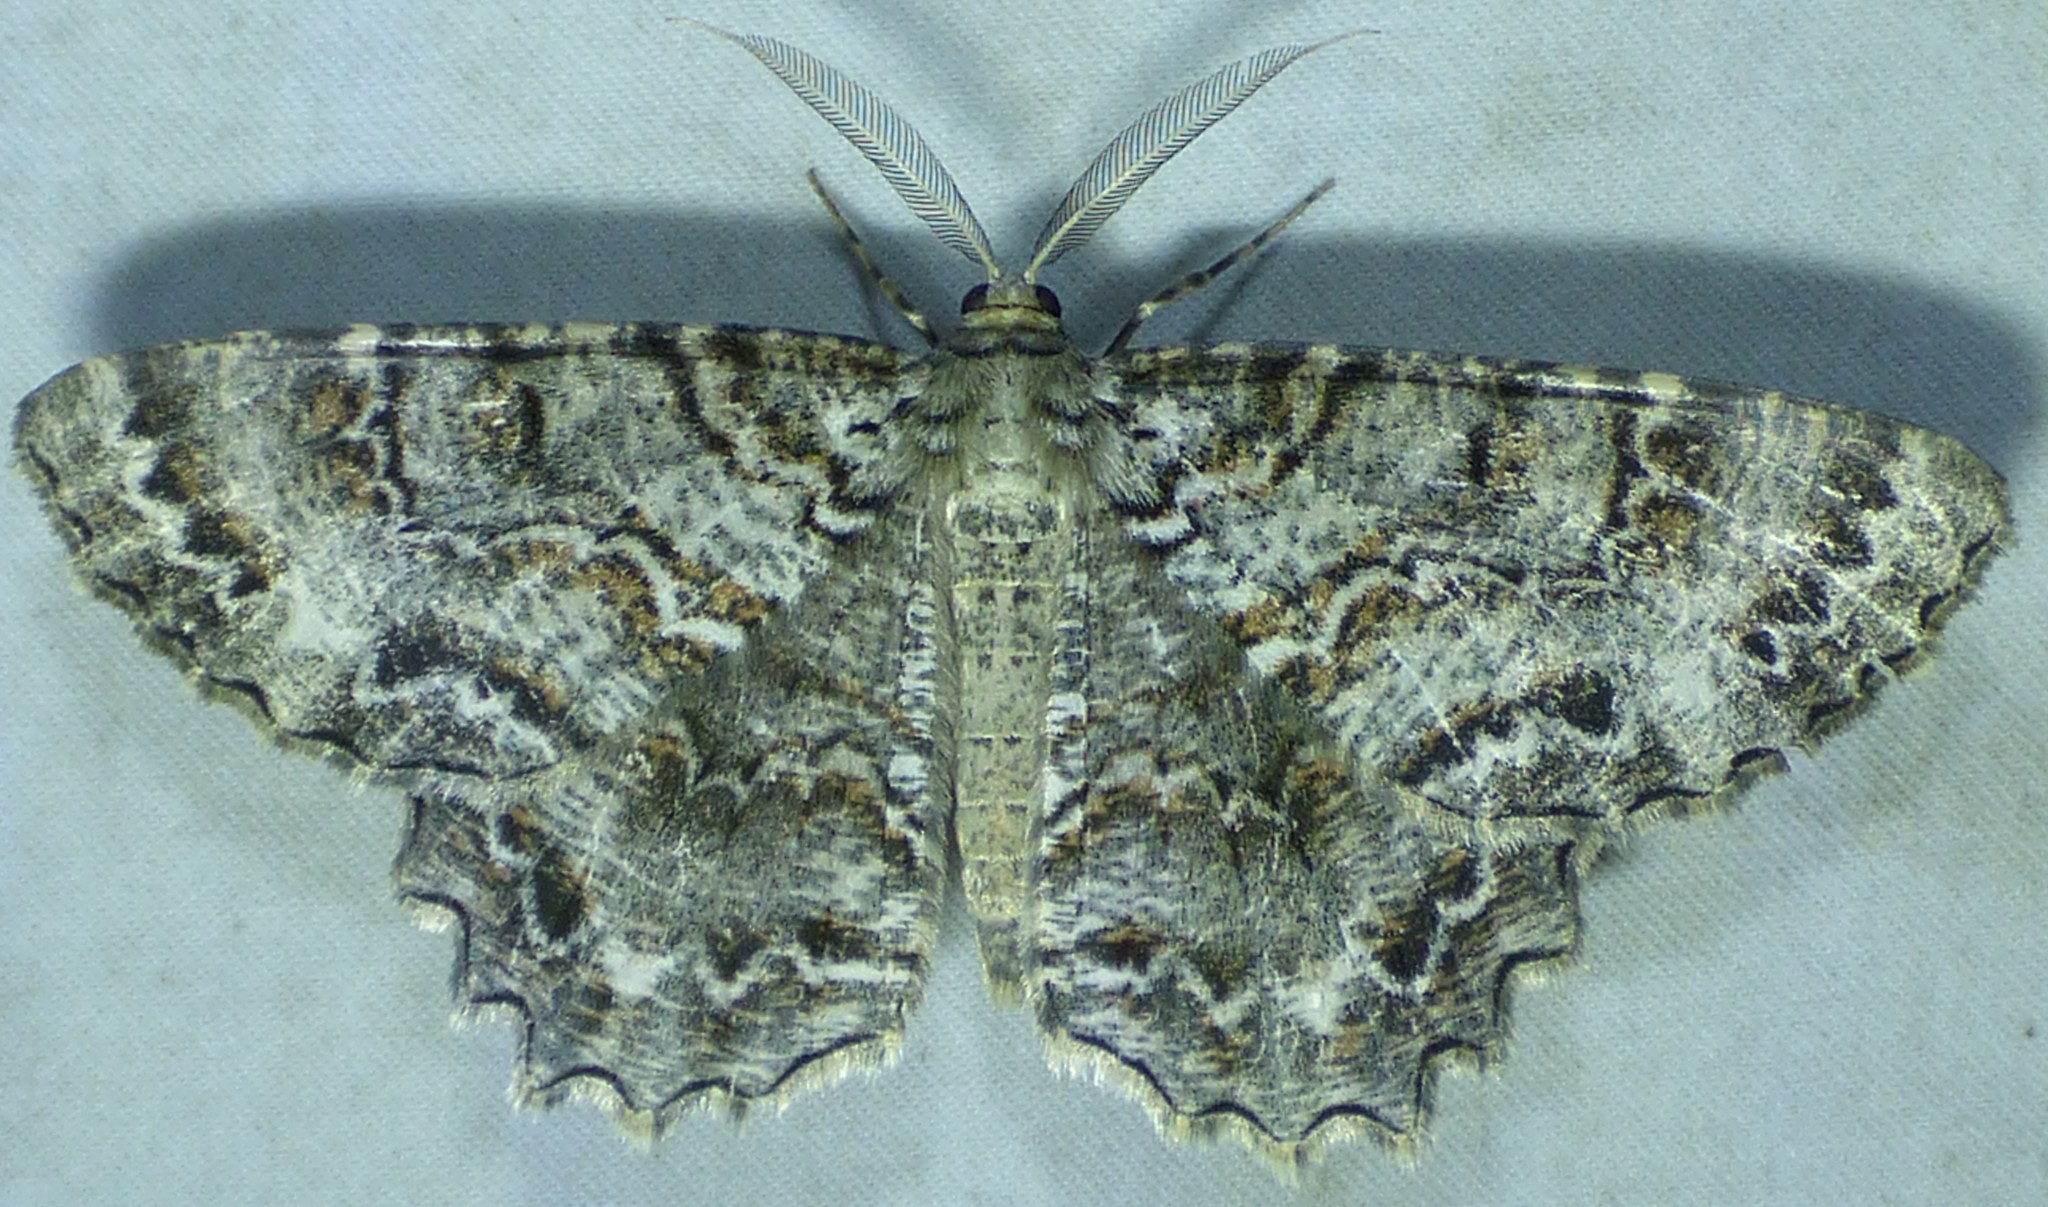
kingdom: Animalia
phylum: Arthropoda
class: Insecta
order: Lepidoptera
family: Geometridae
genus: Epimecis
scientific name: Epimecis hortaria
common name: Tulip-tree beauty
